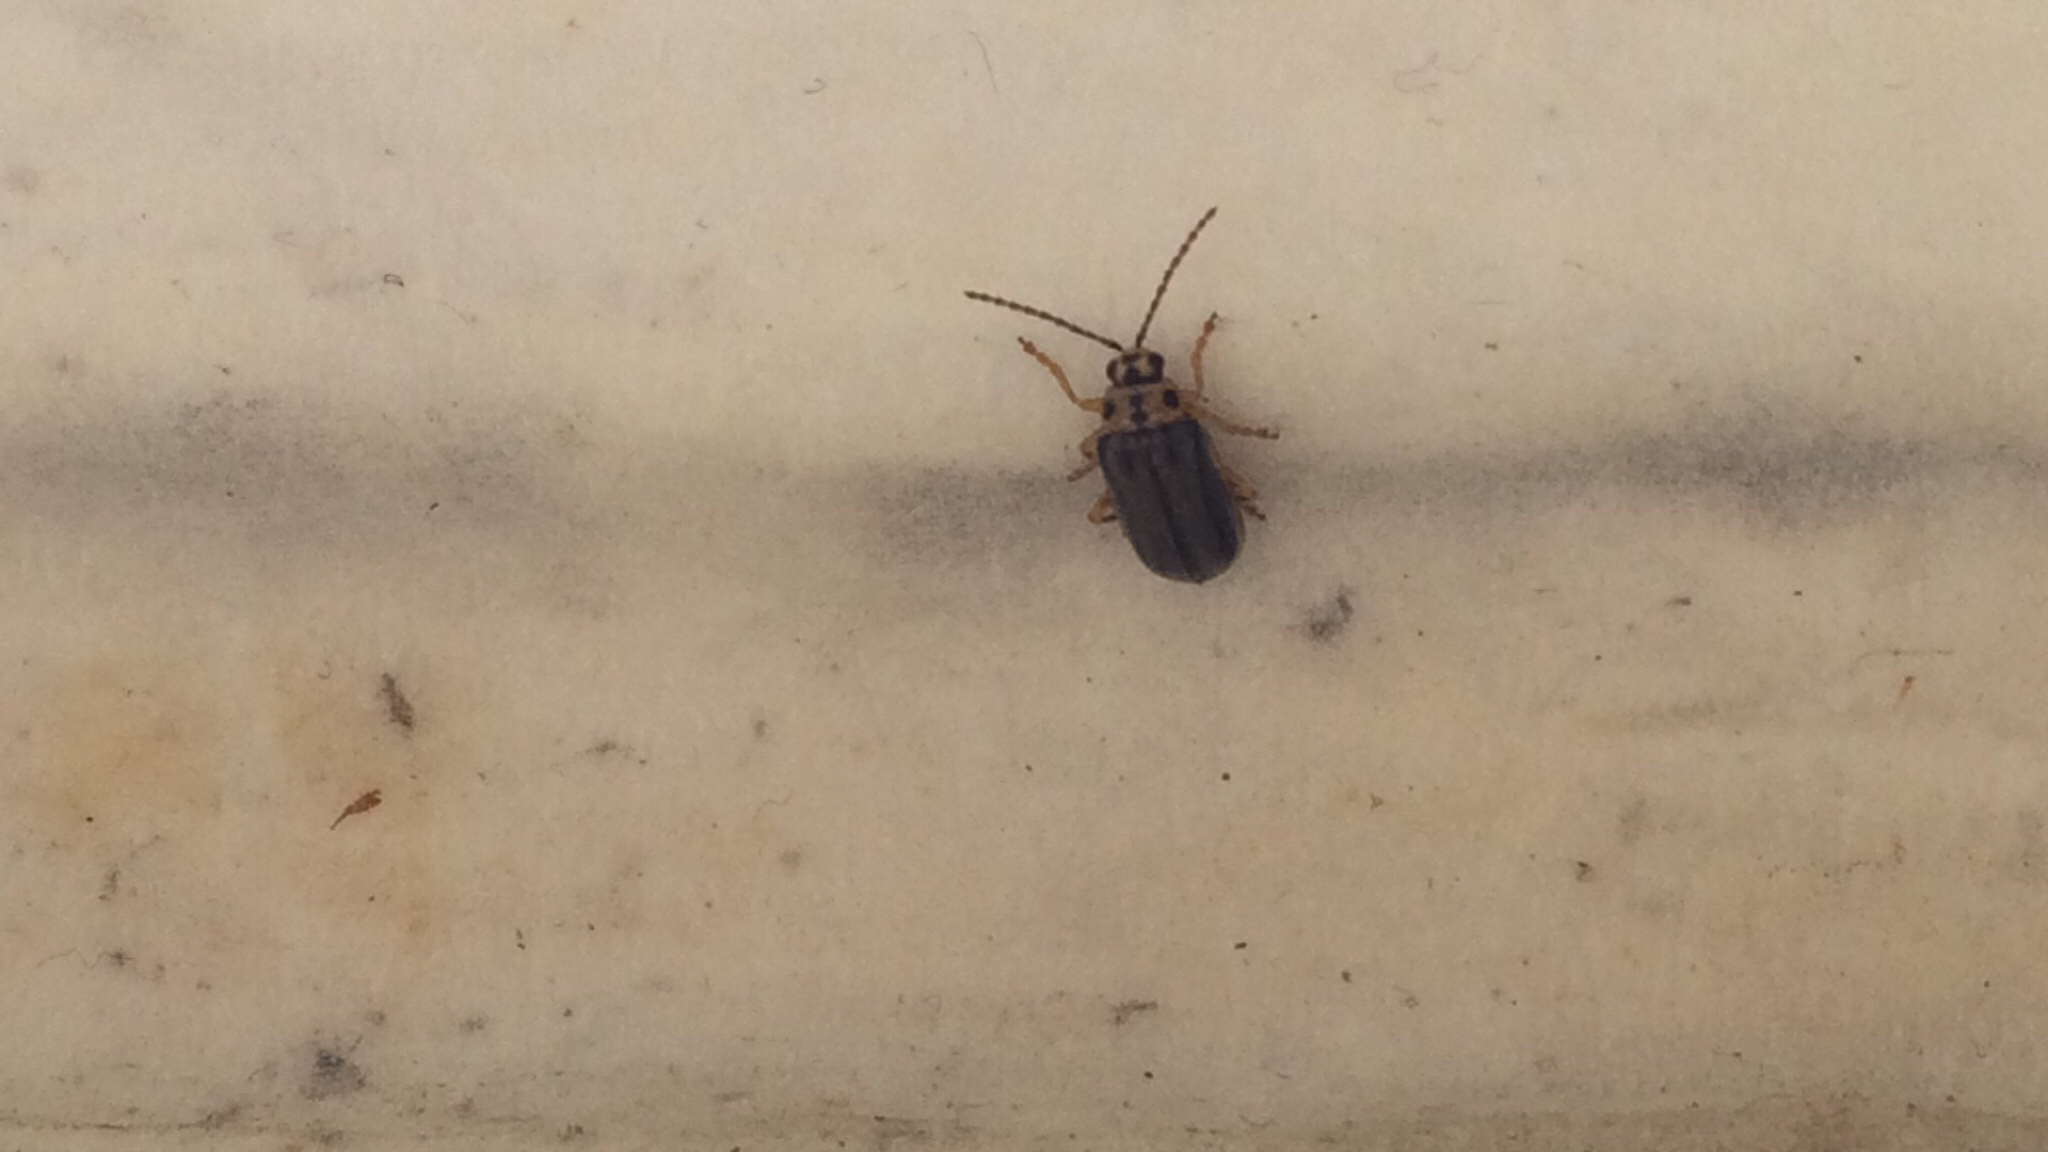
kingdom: Animalia
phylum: Arthropoda
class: Insecta
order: Coleoptera
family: Chrysomelidae
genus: Xanthogaleruca
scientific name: Xanthogaleruca luteola
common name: Elm leaf beetle
